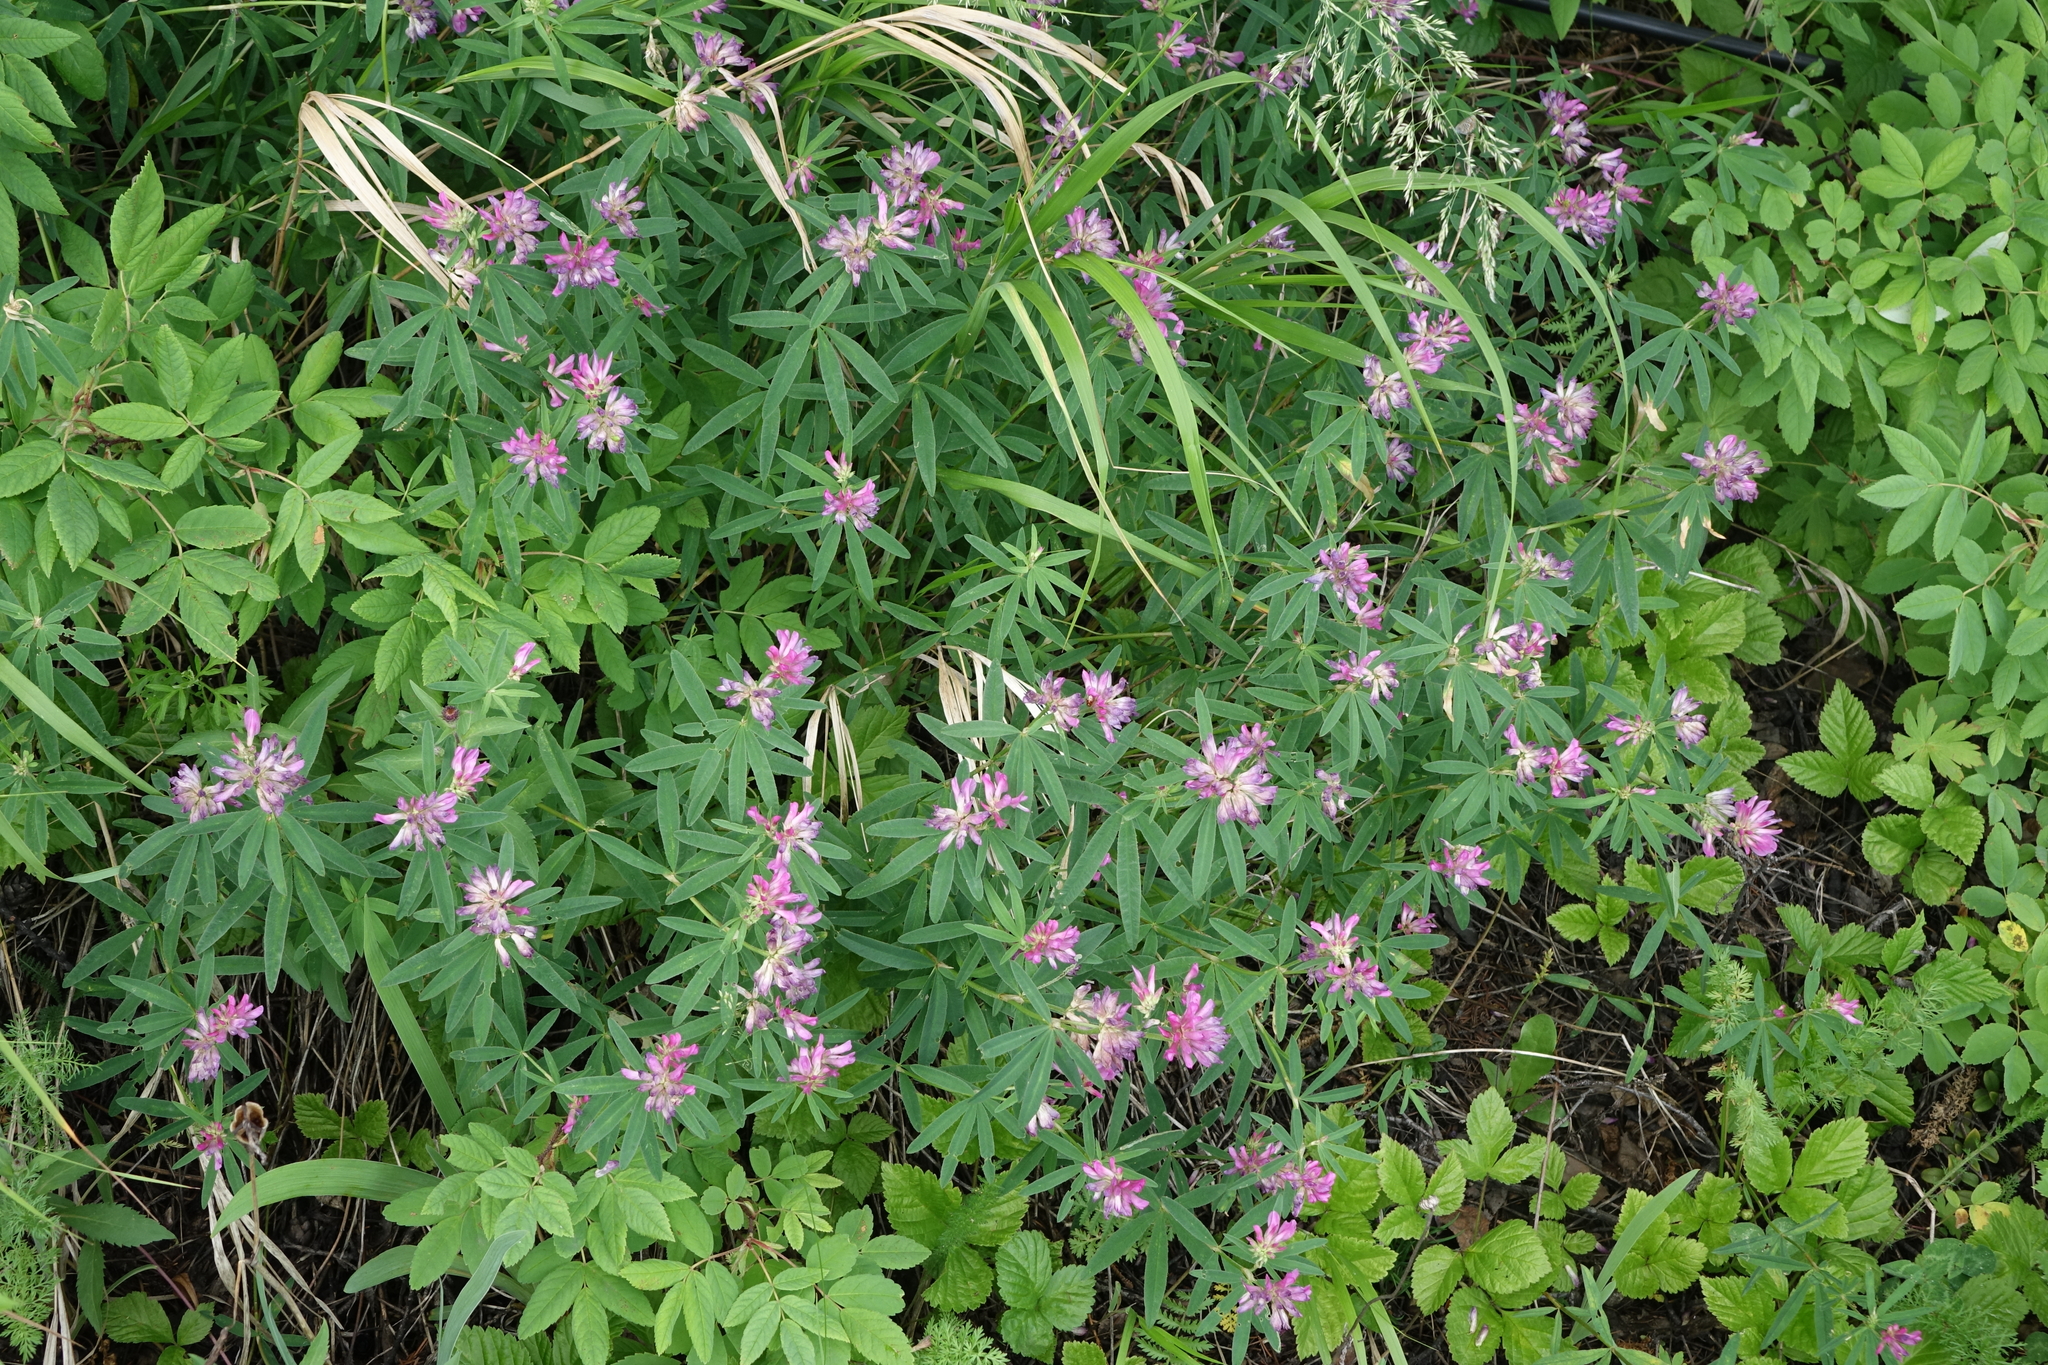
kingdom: Plantae
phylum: Tracheophyta
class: Magnoliopsida
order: Fabales
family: Fabaceae
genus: Trifolium
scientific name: Trifolium lupinaster
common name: Lupine clover
